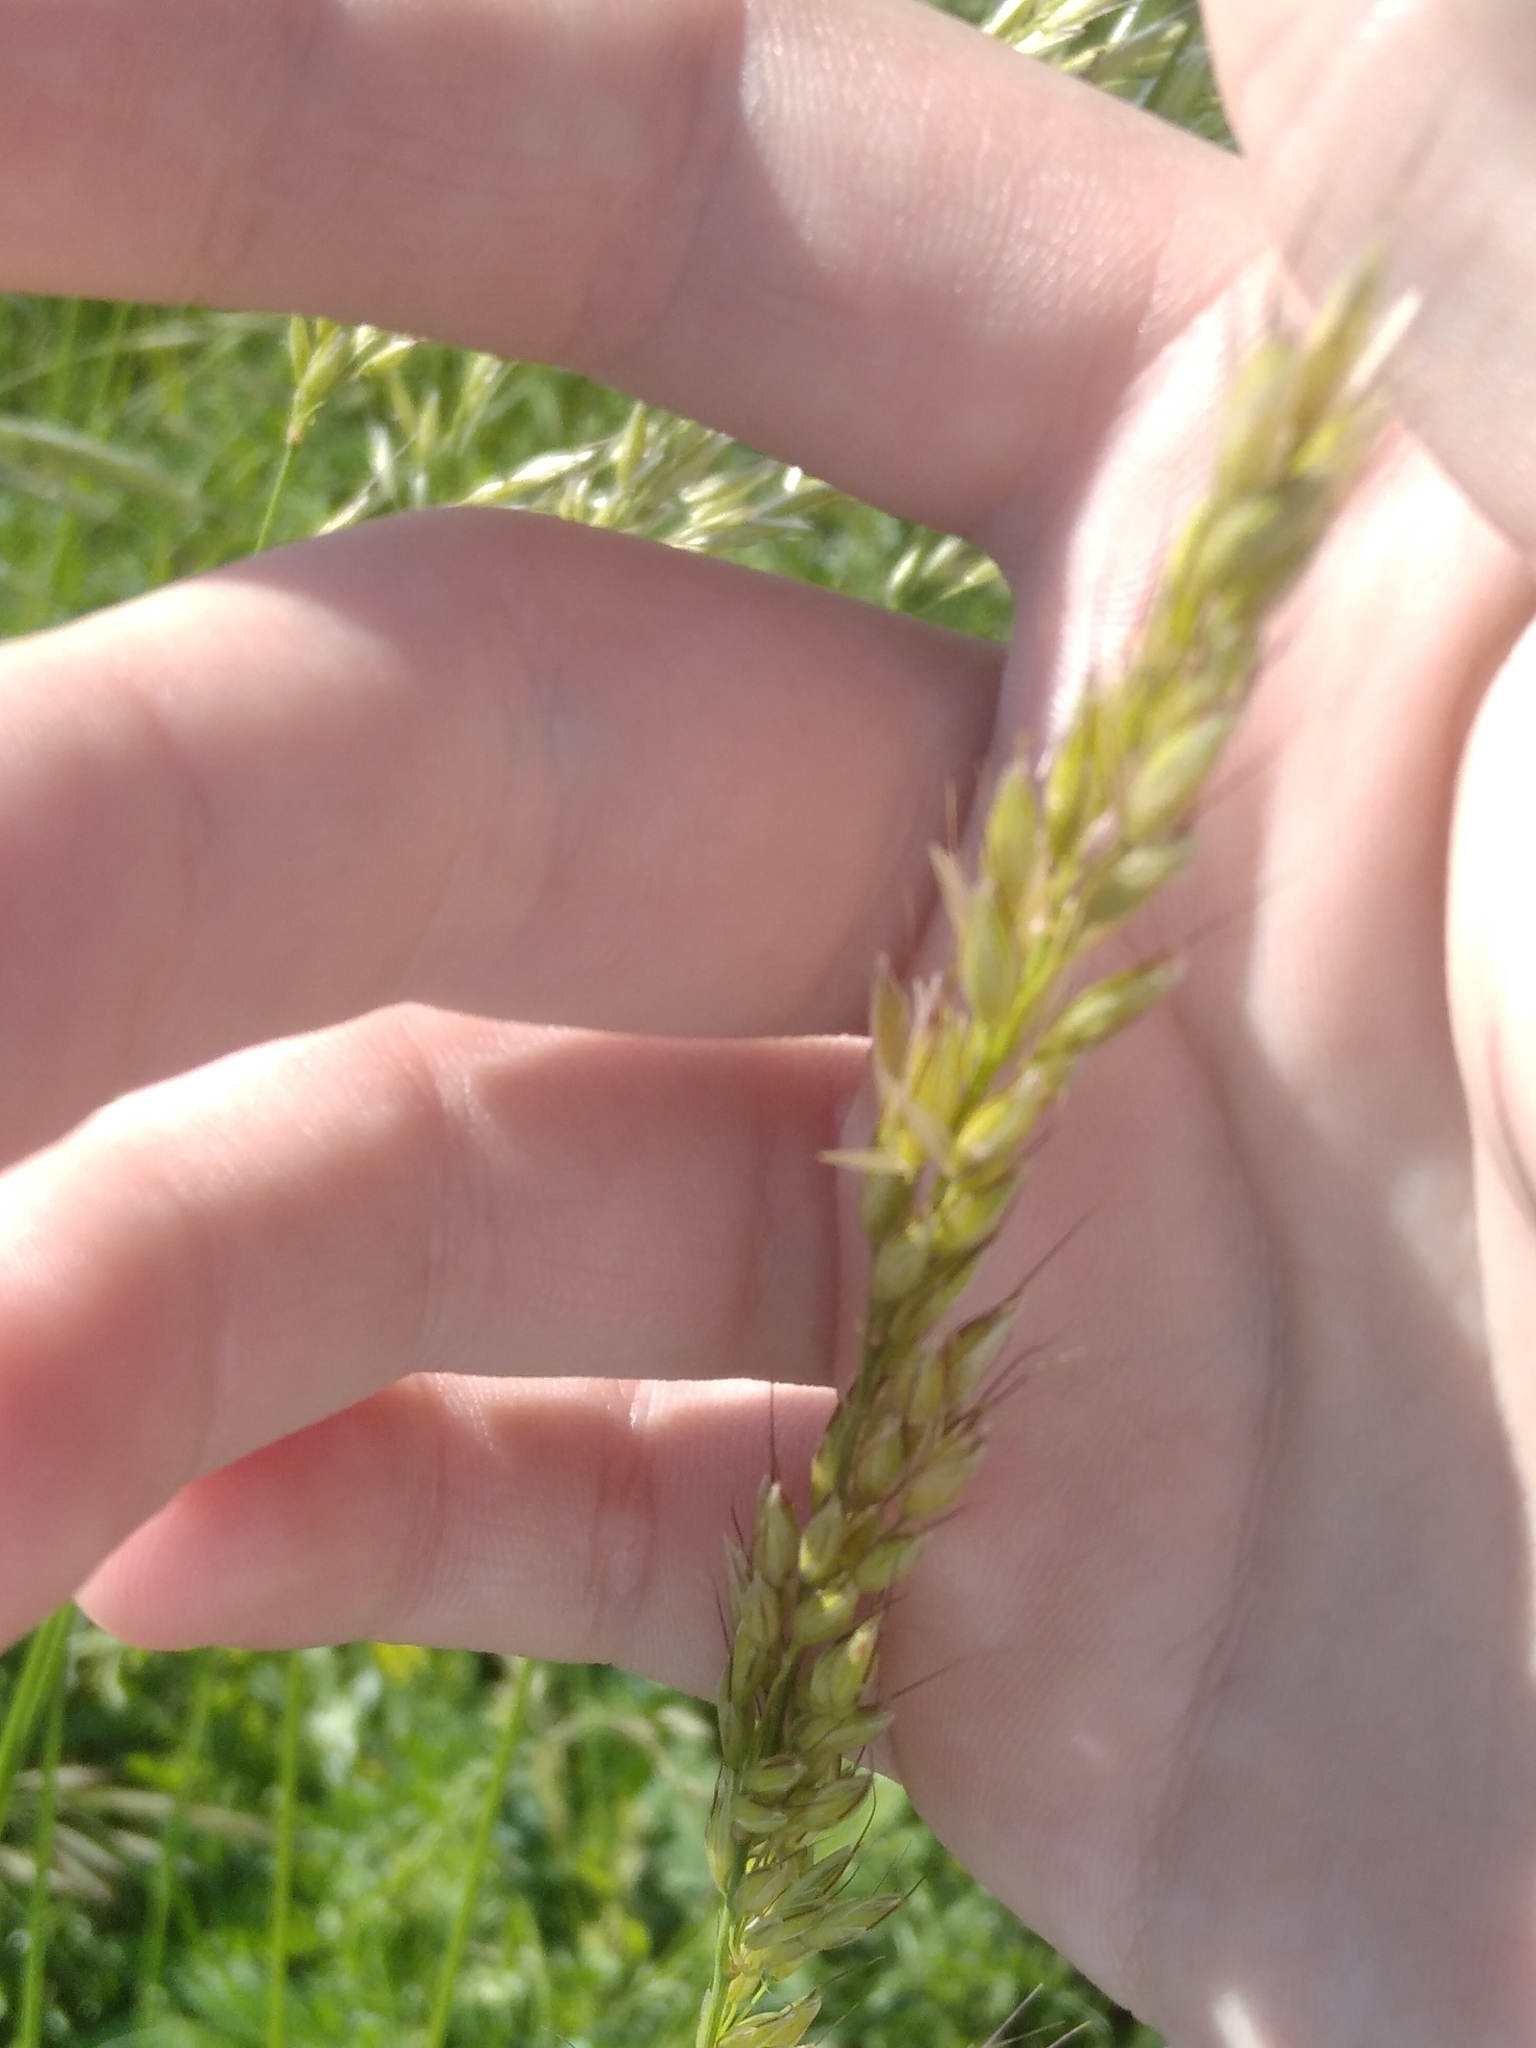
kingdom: Plantae
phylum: Tracheophyta
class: Liliopsida
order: Poales
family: Poaceae
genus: Arrhenatherum
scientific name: Arrhenatherum elatius
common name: Tall oatgrass
